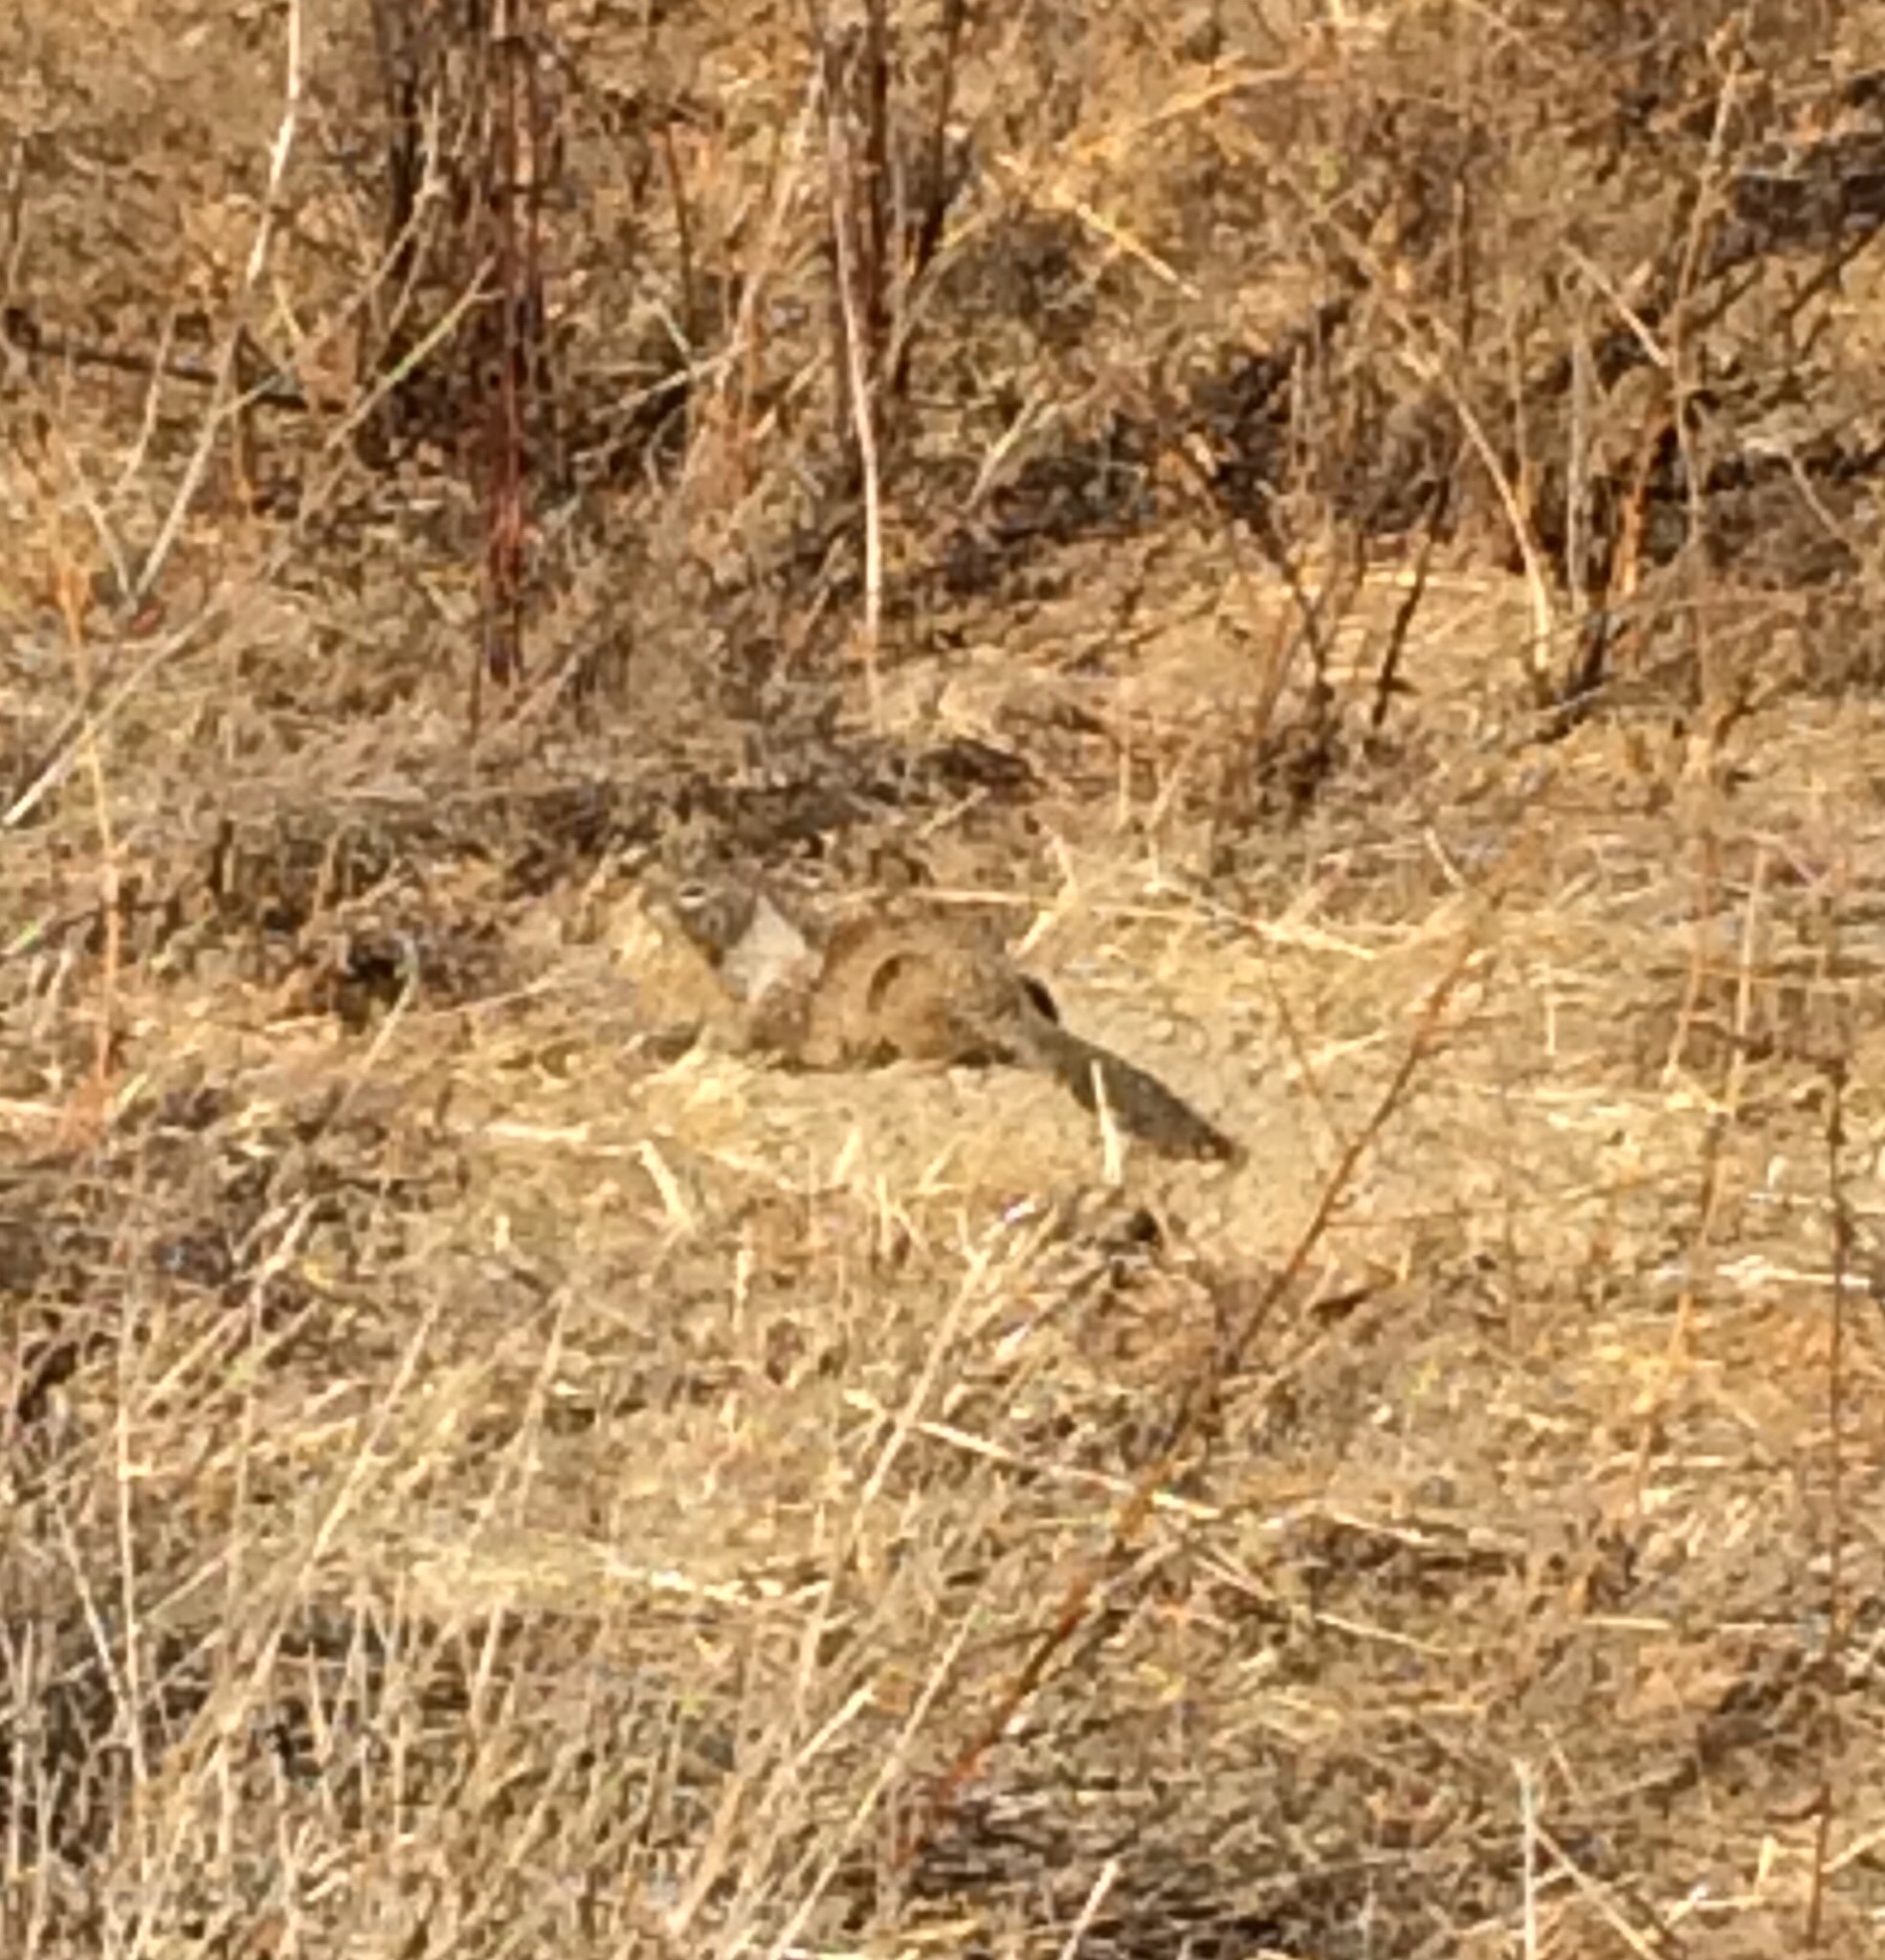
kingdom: Animalia
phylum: Chordata
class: Mammalia
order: Rodentia
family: Sciuridae
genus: Otospermophilus
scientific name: Otospermophilus beecheyi
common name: California ground squirrel
